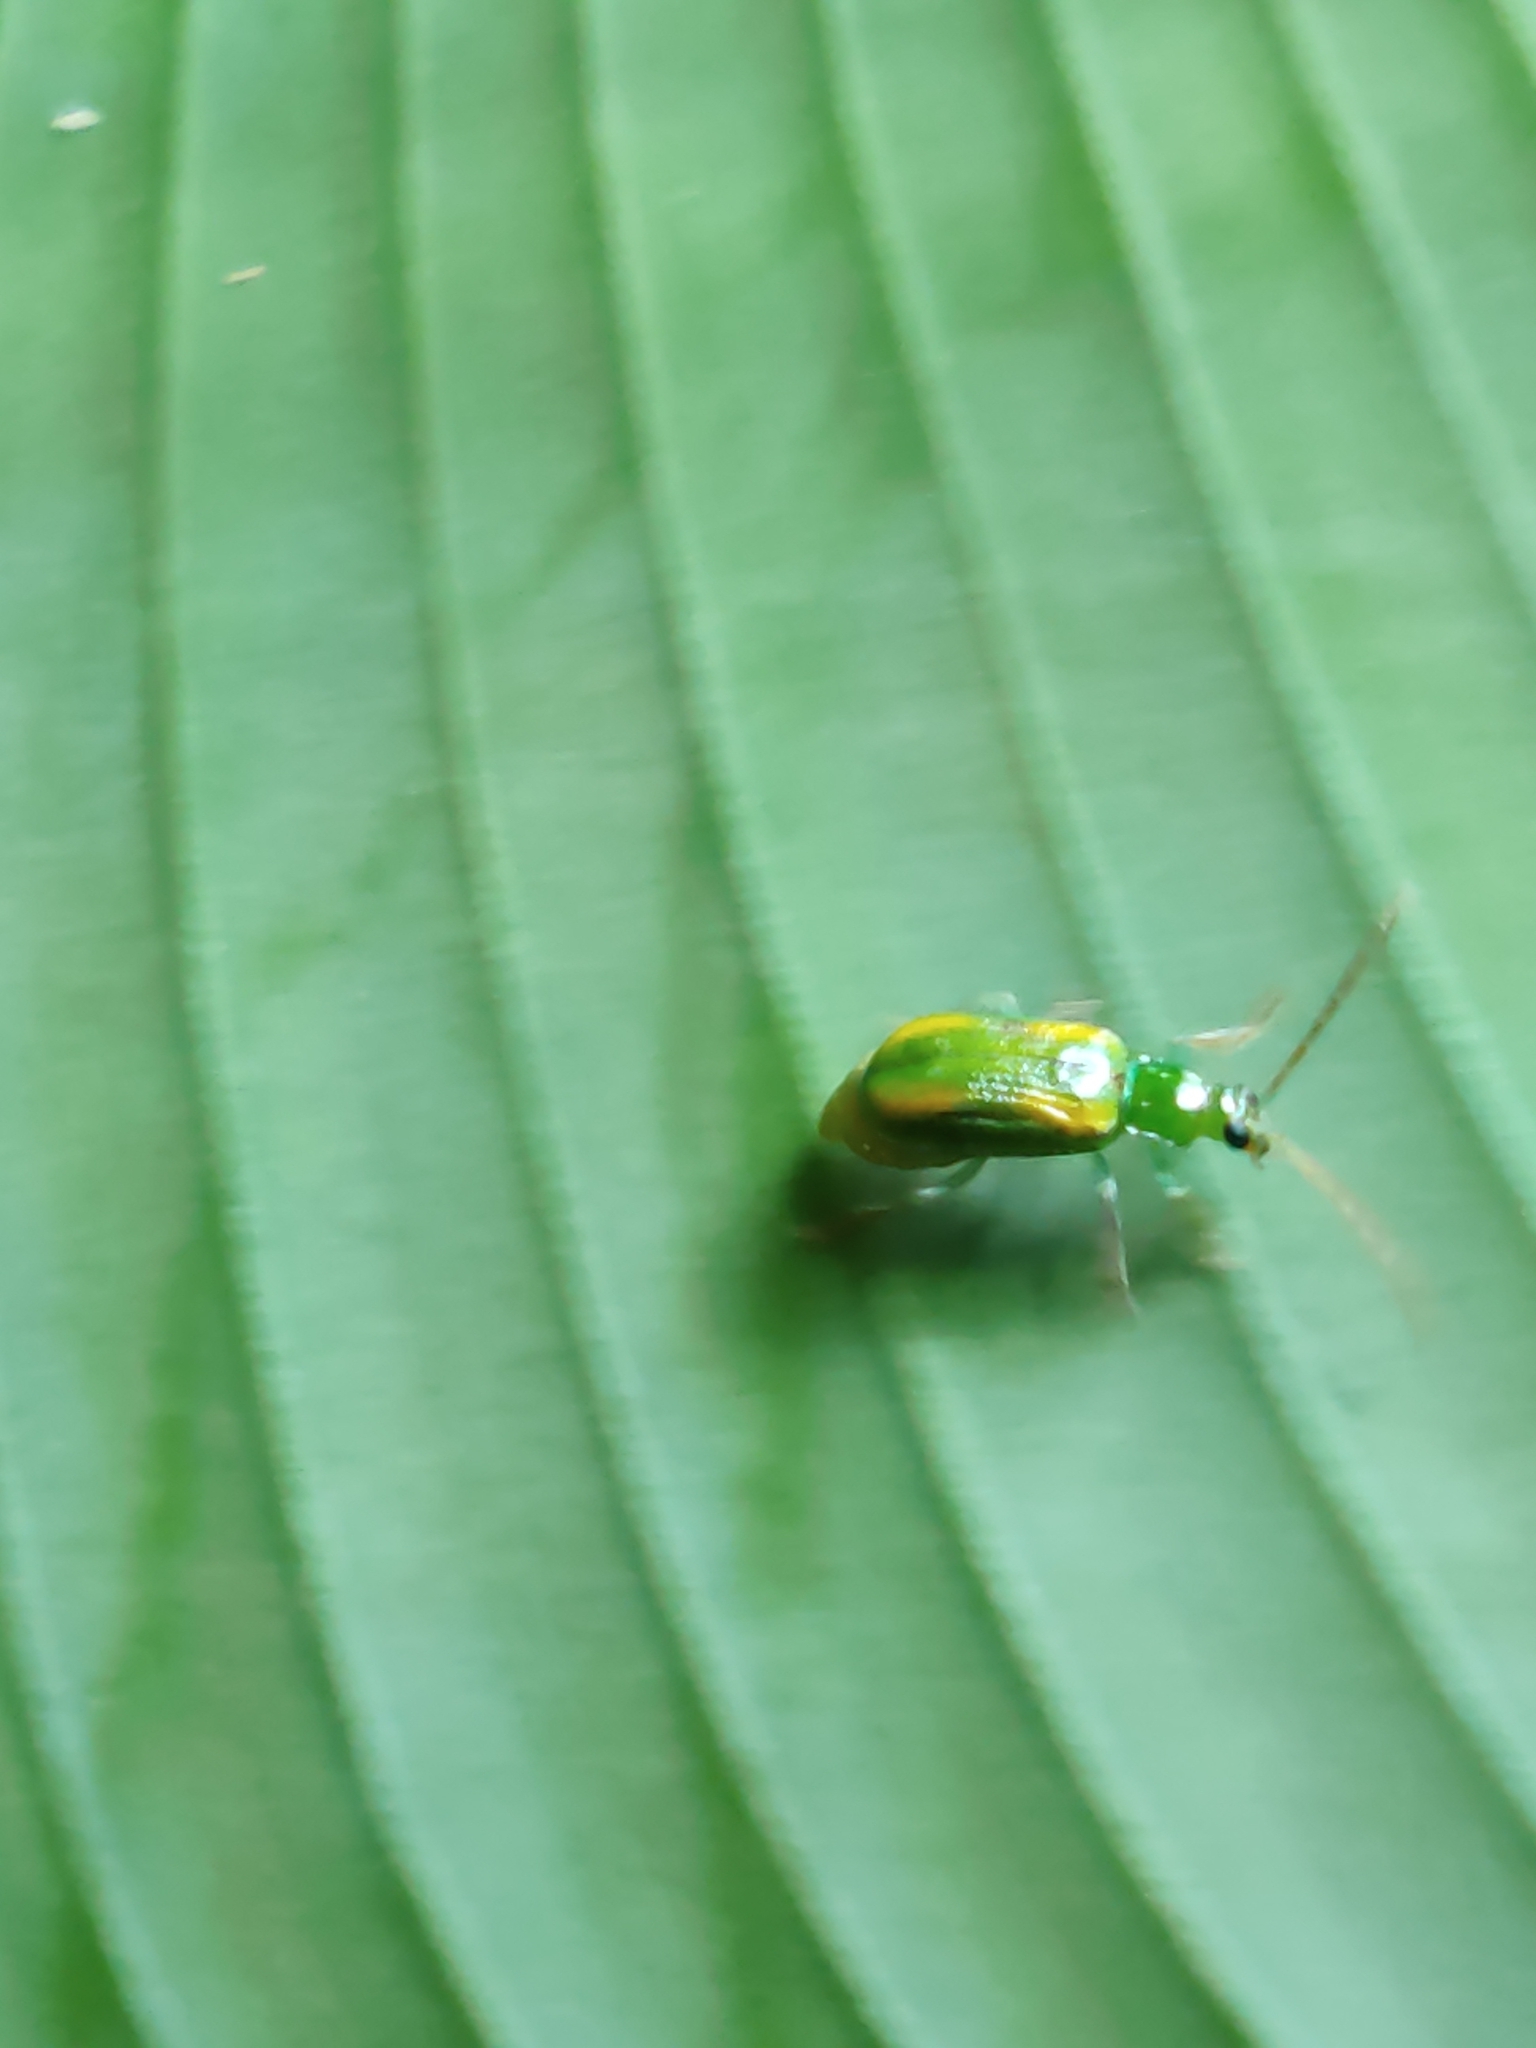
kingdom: Animalia
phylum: Arthropoda
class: Insecta
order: Coleoptera
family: Chrysomelidae
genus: Diabrotica
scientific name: Diabrotica porracea
